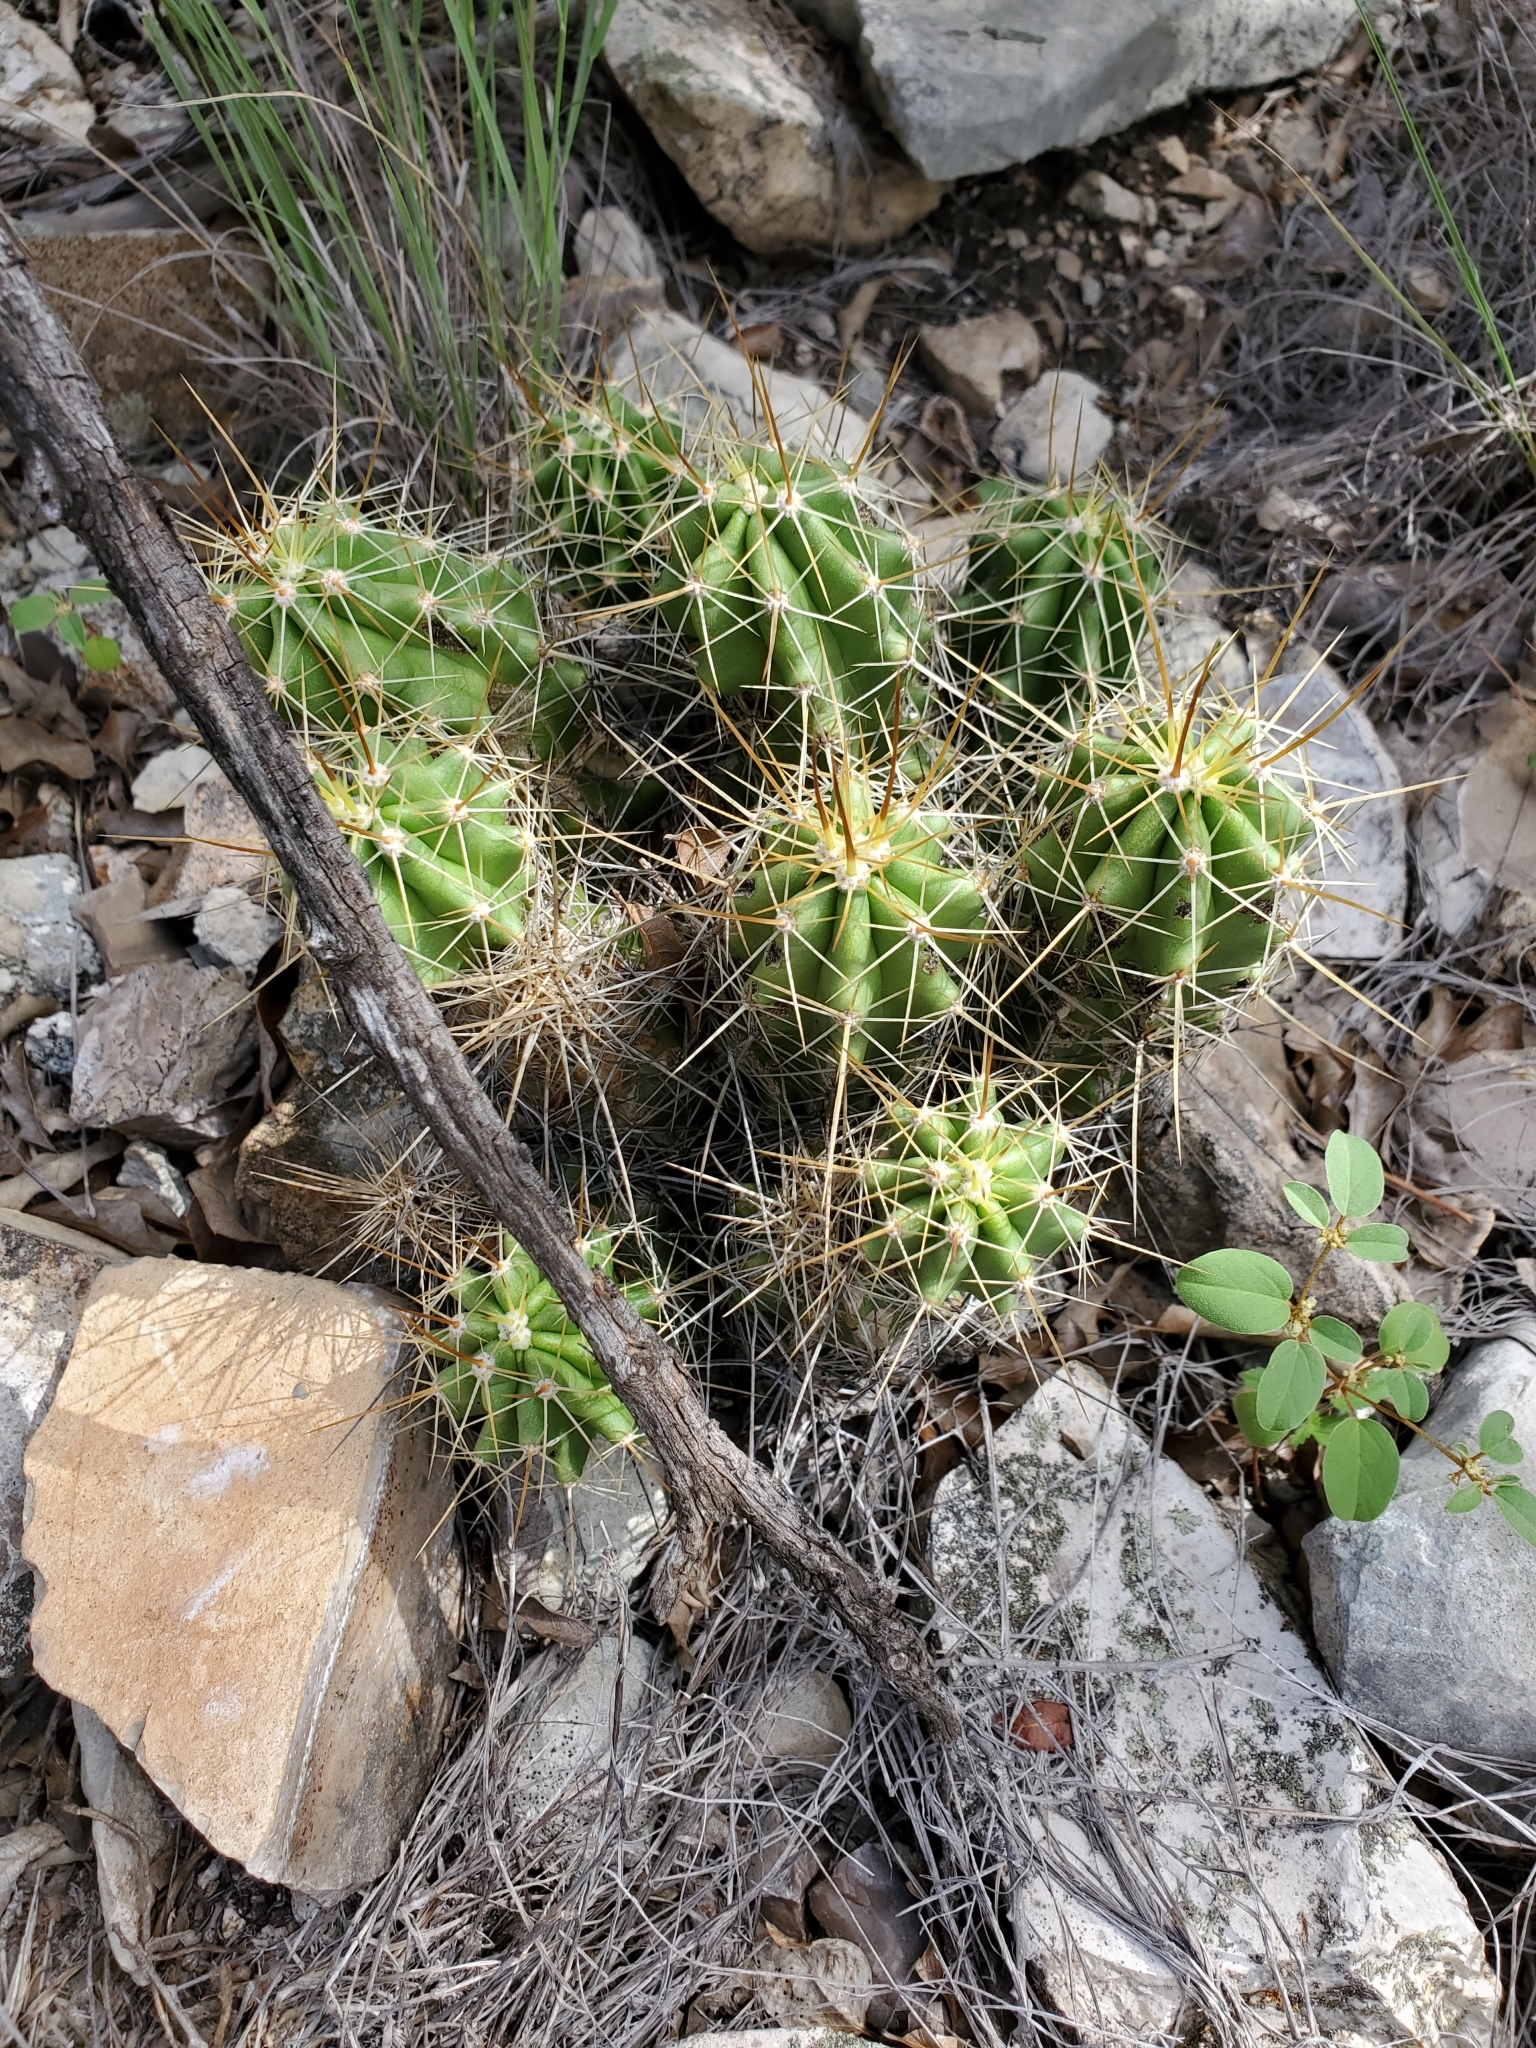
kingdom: Plantae
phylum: Tracheophyta
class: Magnoliopsida
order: Caryophyllales
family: Cactaceae
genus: Echinocereus
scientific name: Echinocereus enneacanthus
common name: Pitaya
